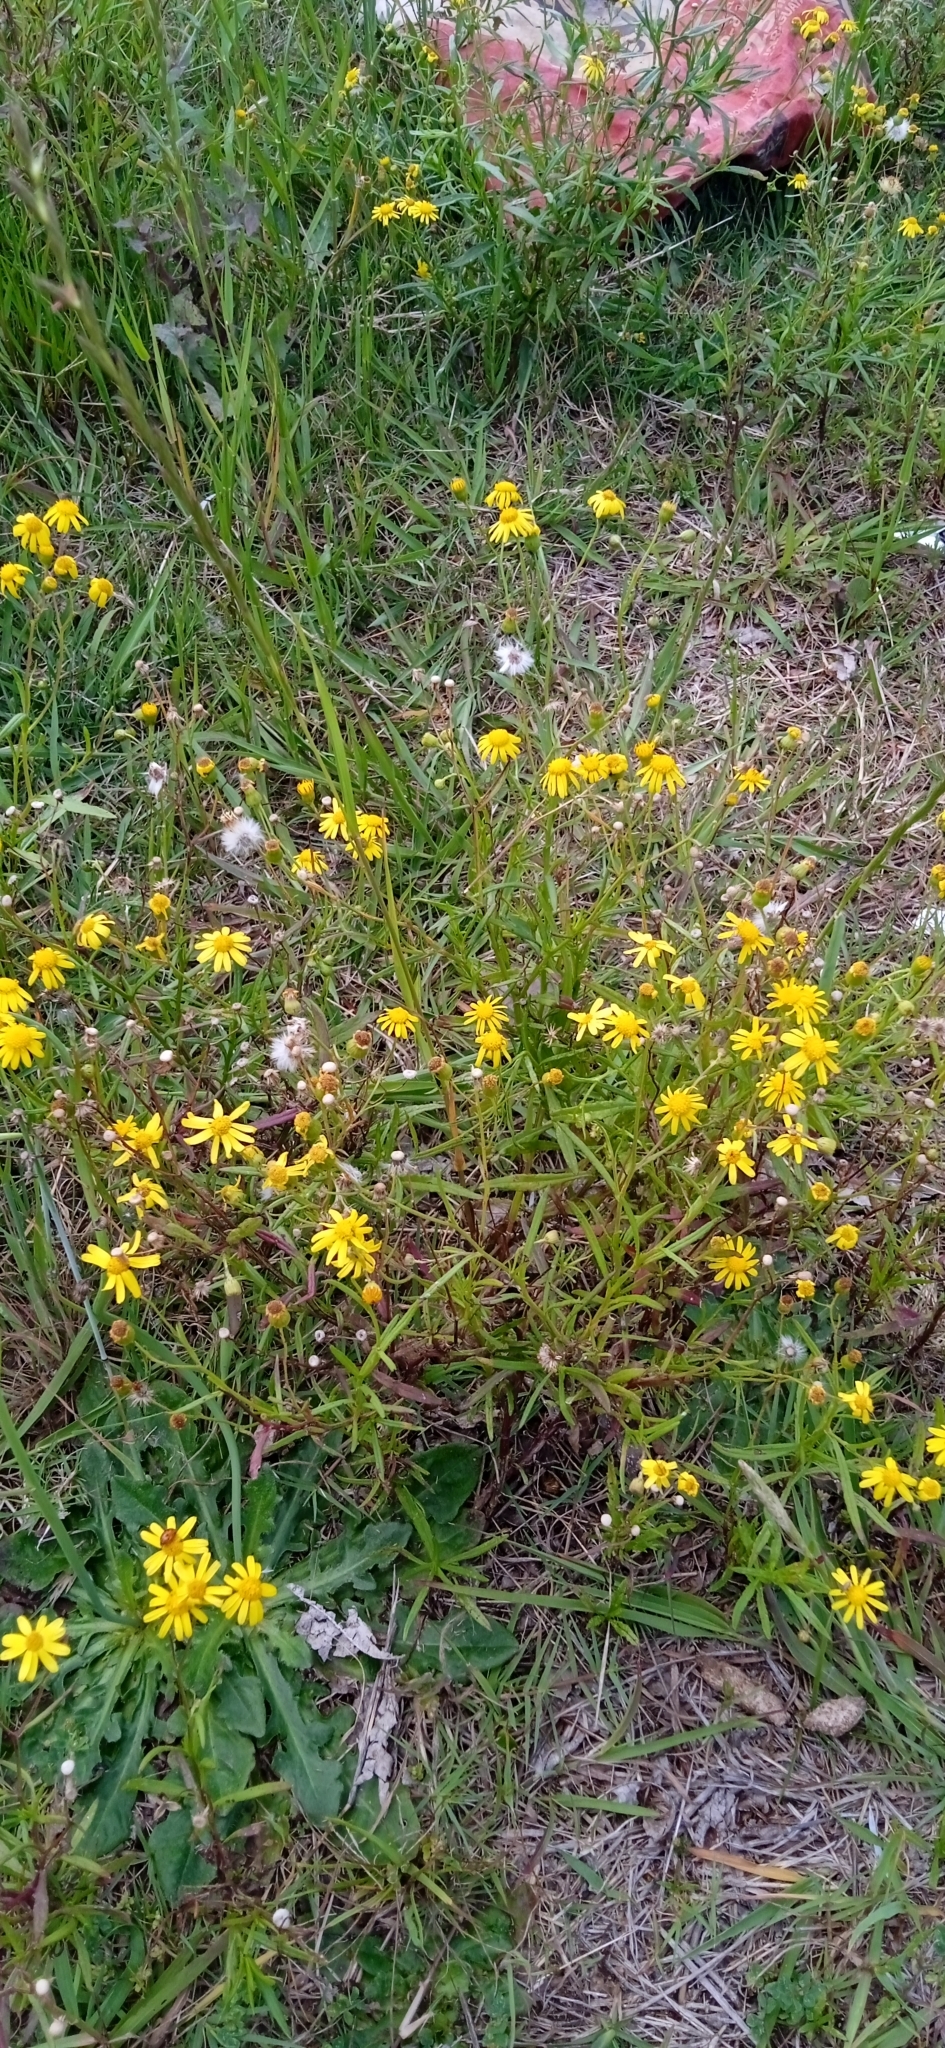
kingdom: Plantae
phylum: Tracheophyta
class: Magnoliopsida
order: Asterales
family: Asteraceae
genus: Senecio
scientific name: Senecio madagascariensis
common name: Madagascar ragwort
